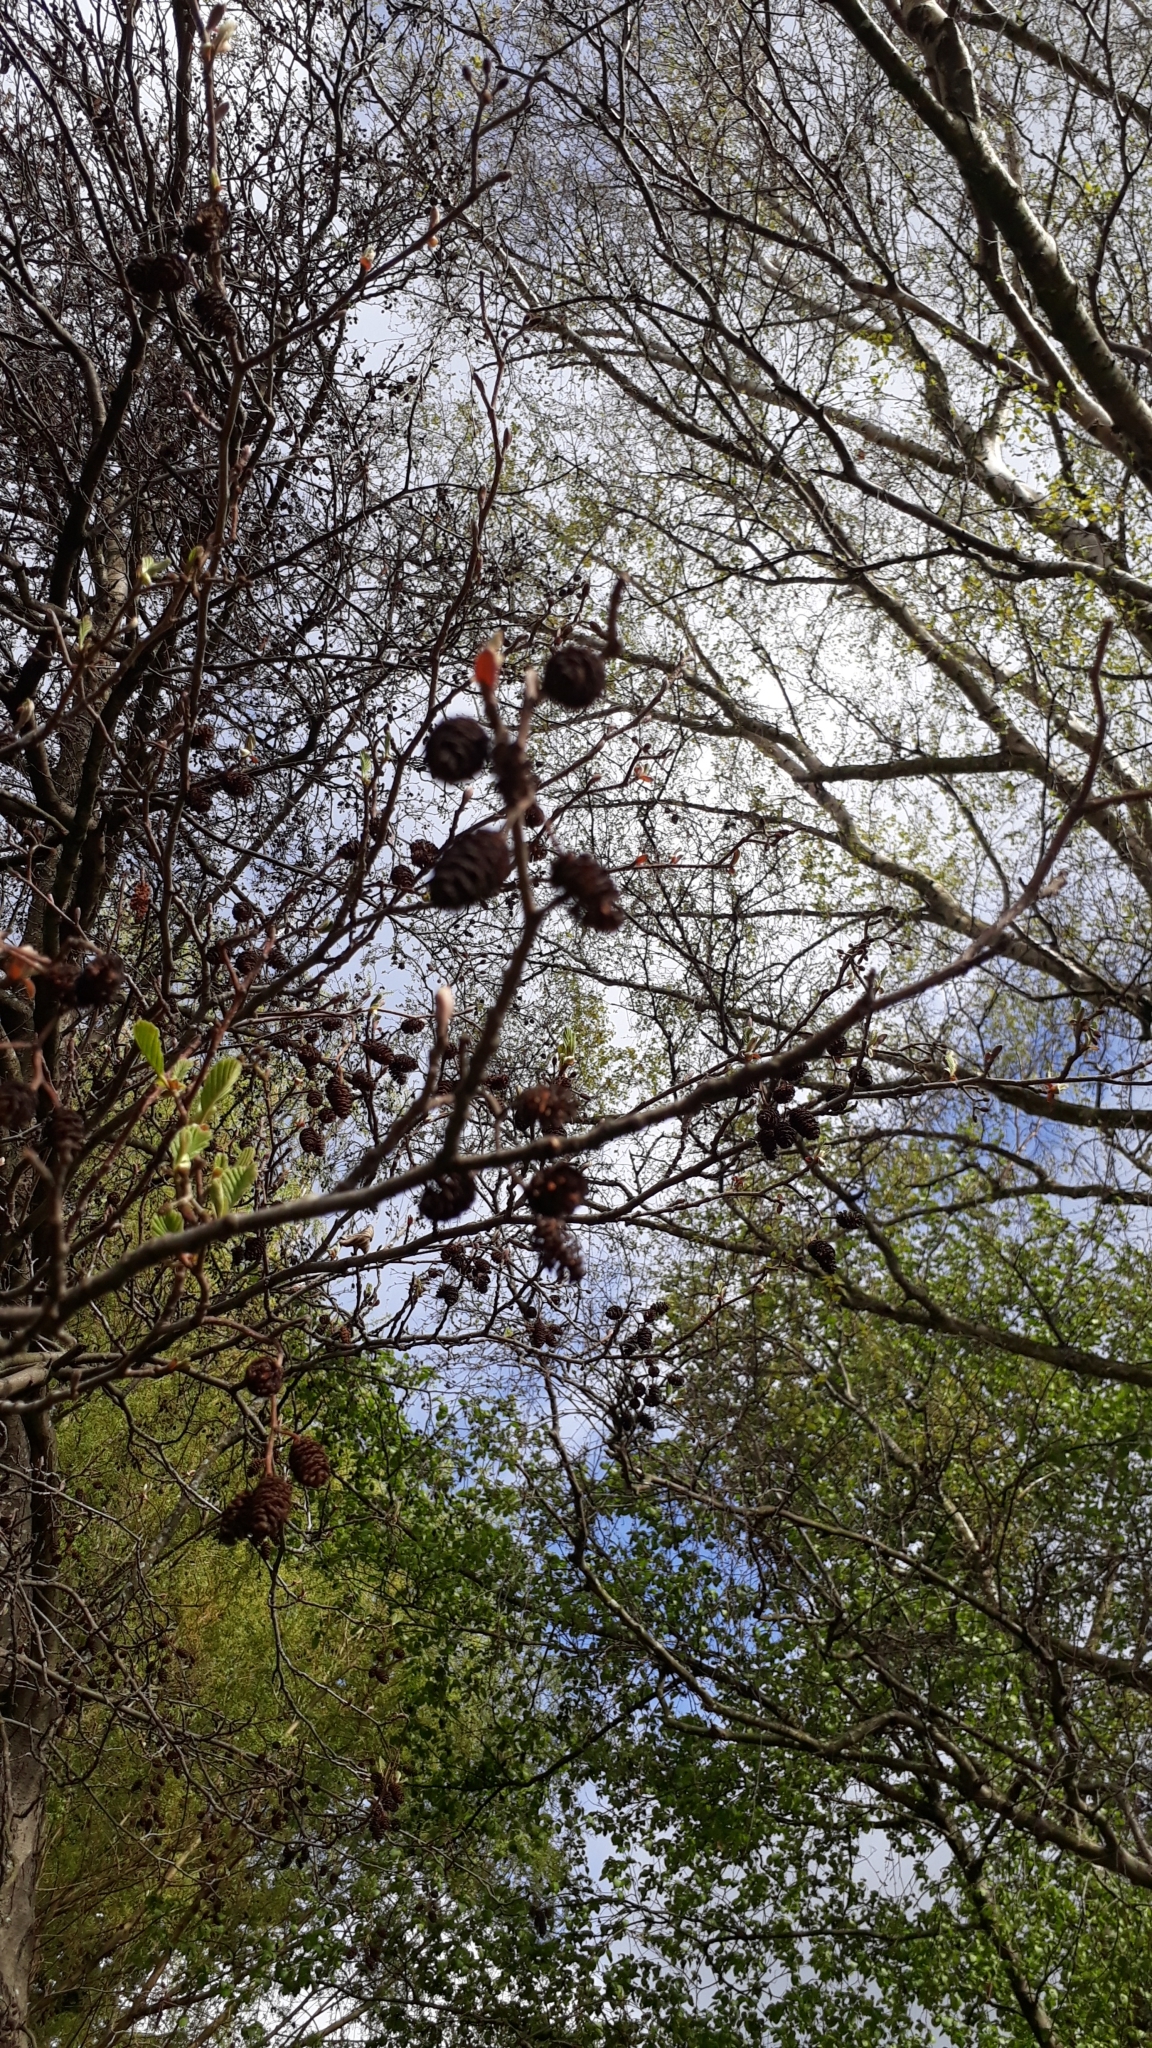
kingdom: Plantae
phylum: Tracheophyta
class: Magnoliopsida
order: Fagales
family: Betulaceae
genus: Alnus
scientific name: Alnus glutinosa
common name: Black alder
